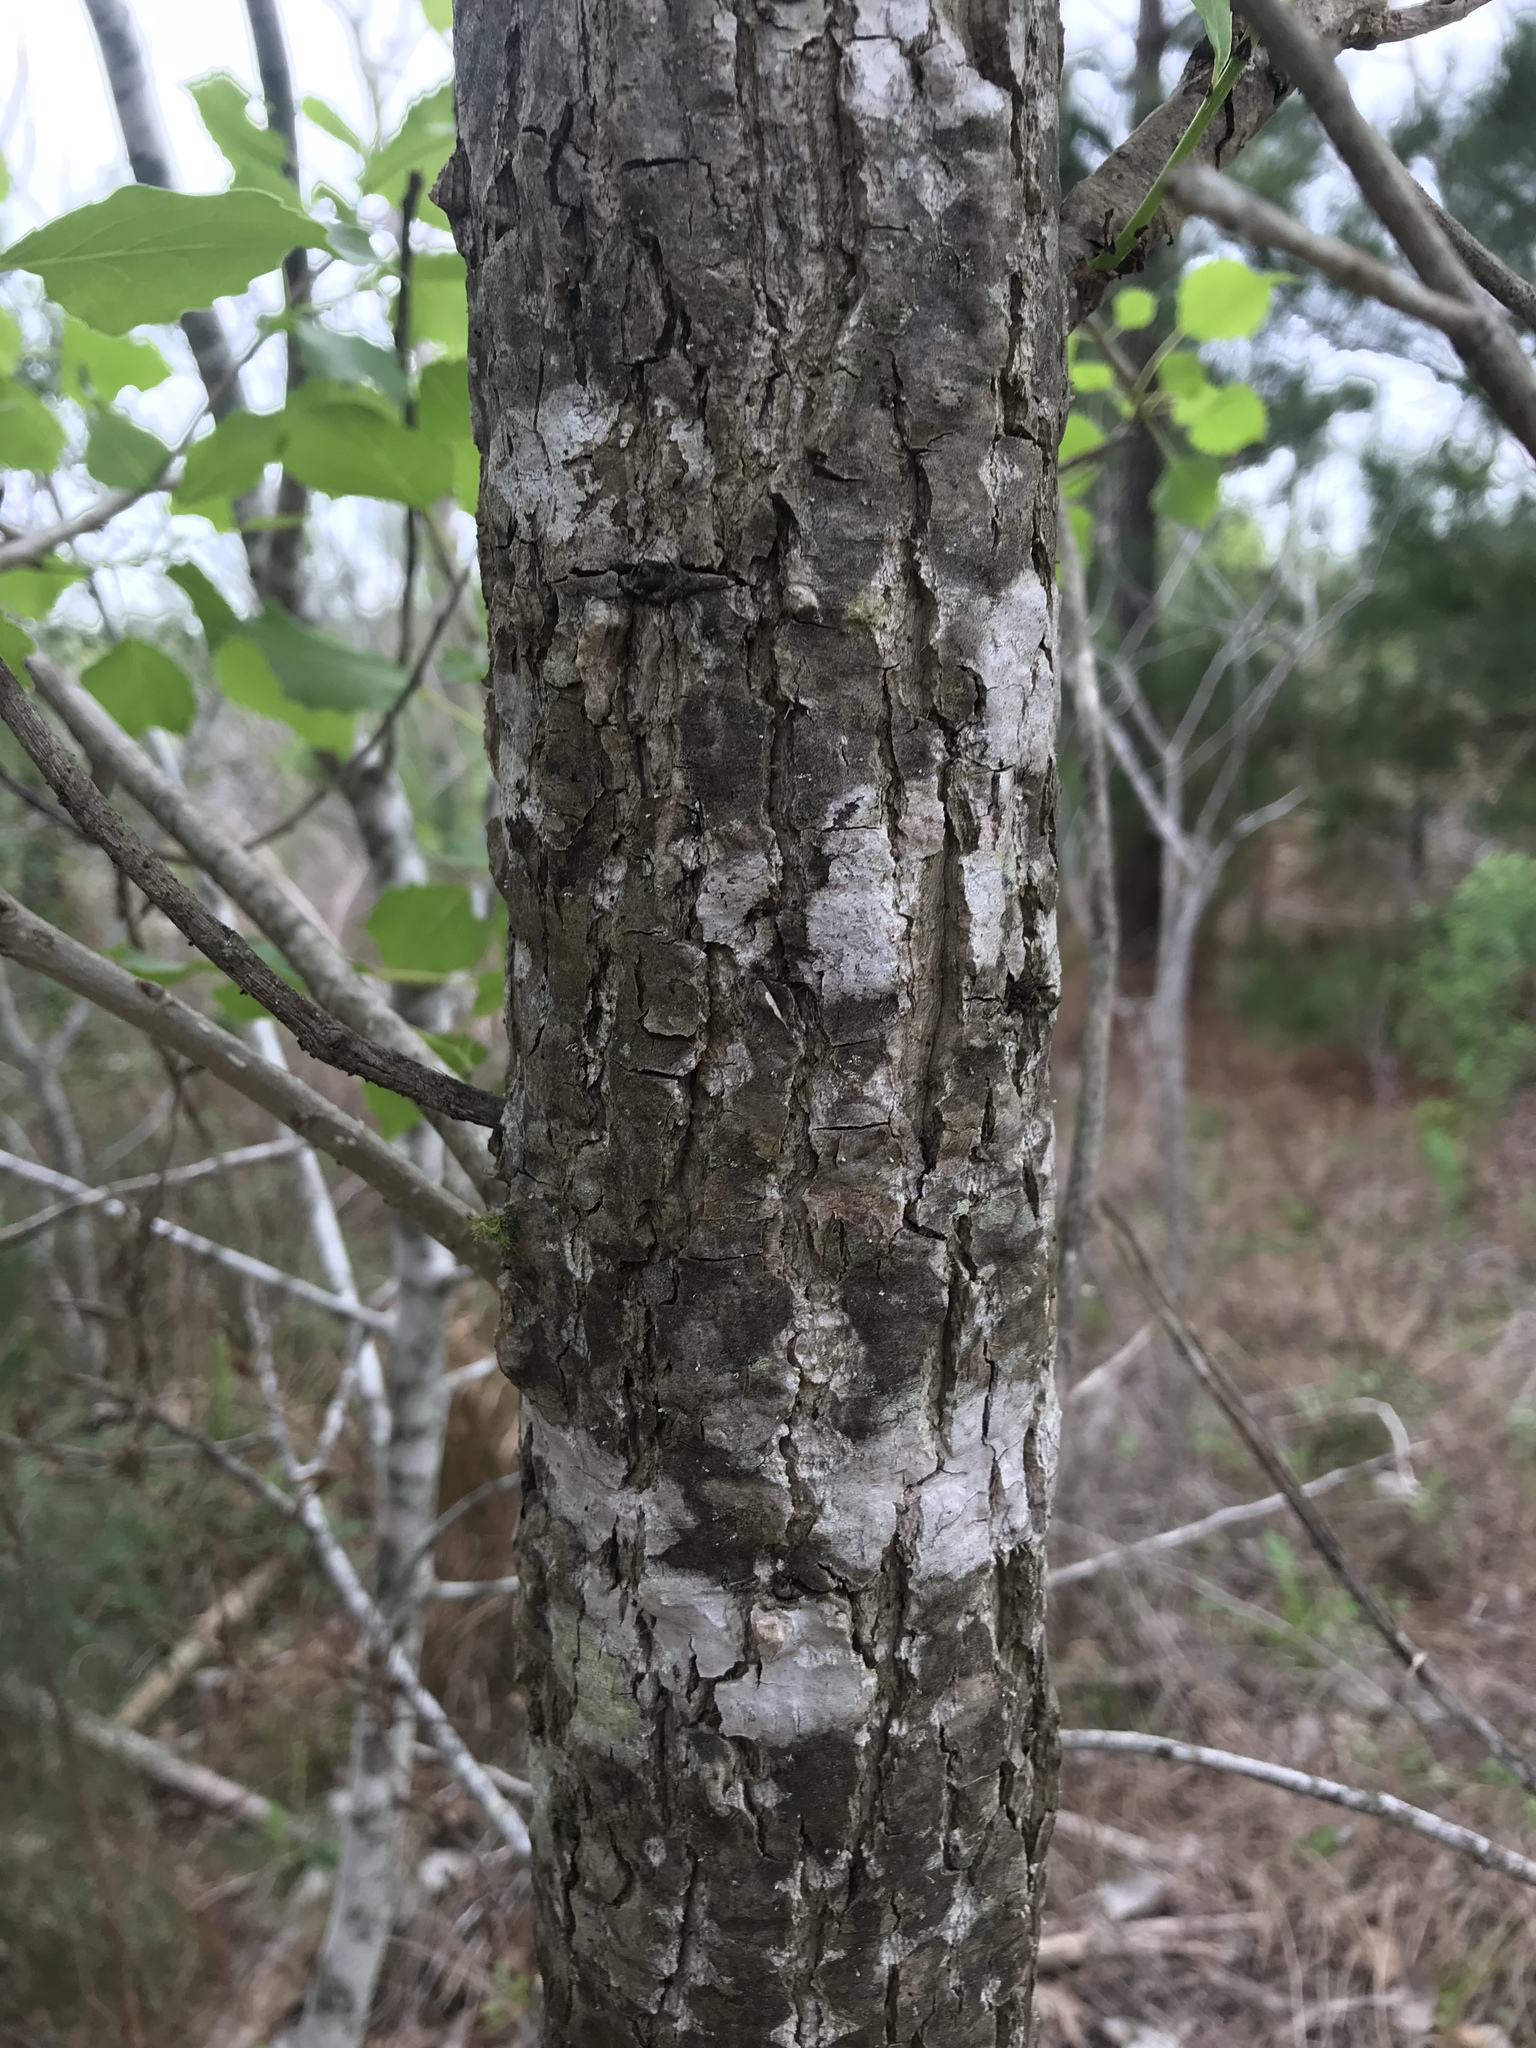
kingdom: Plantae
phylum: Tracheophyta
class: Magnoliopsida
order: Malpighiales
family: Salicaceae
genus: Populus
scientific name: Populus deltoides
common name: Eastern cottonwood
